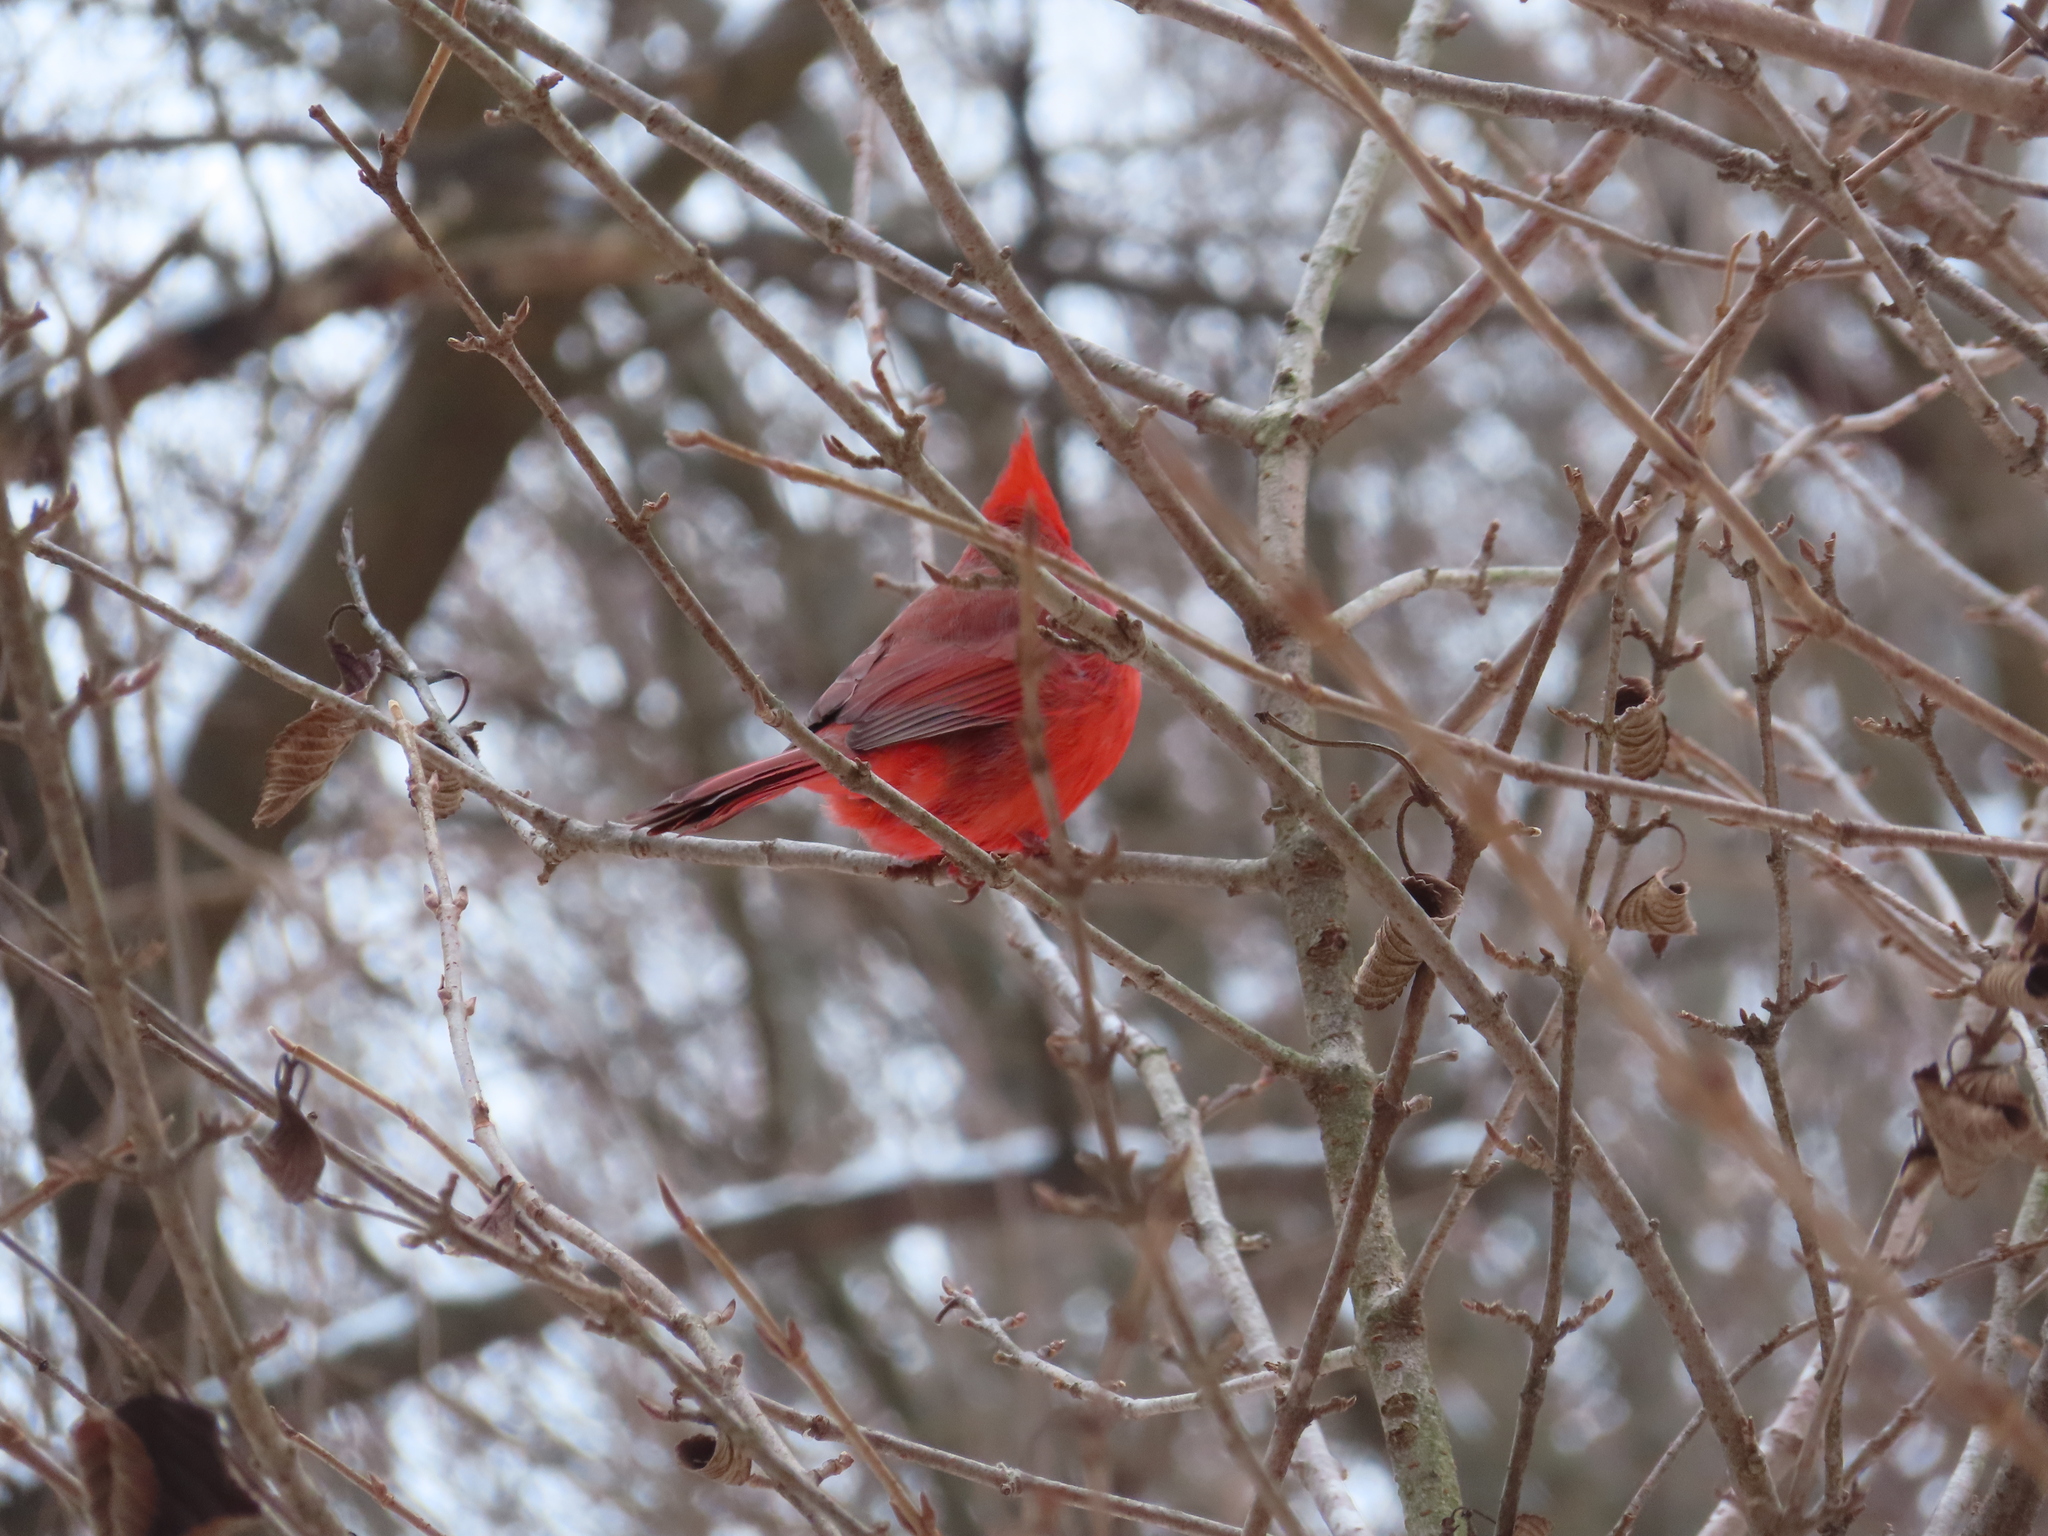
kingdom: Animalia
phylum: Chordata
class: Aves
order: Passeriformes
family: Cardinalidae
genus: Cardinalis
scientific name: Cardinalis cardinalis
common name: Northern cardinal
